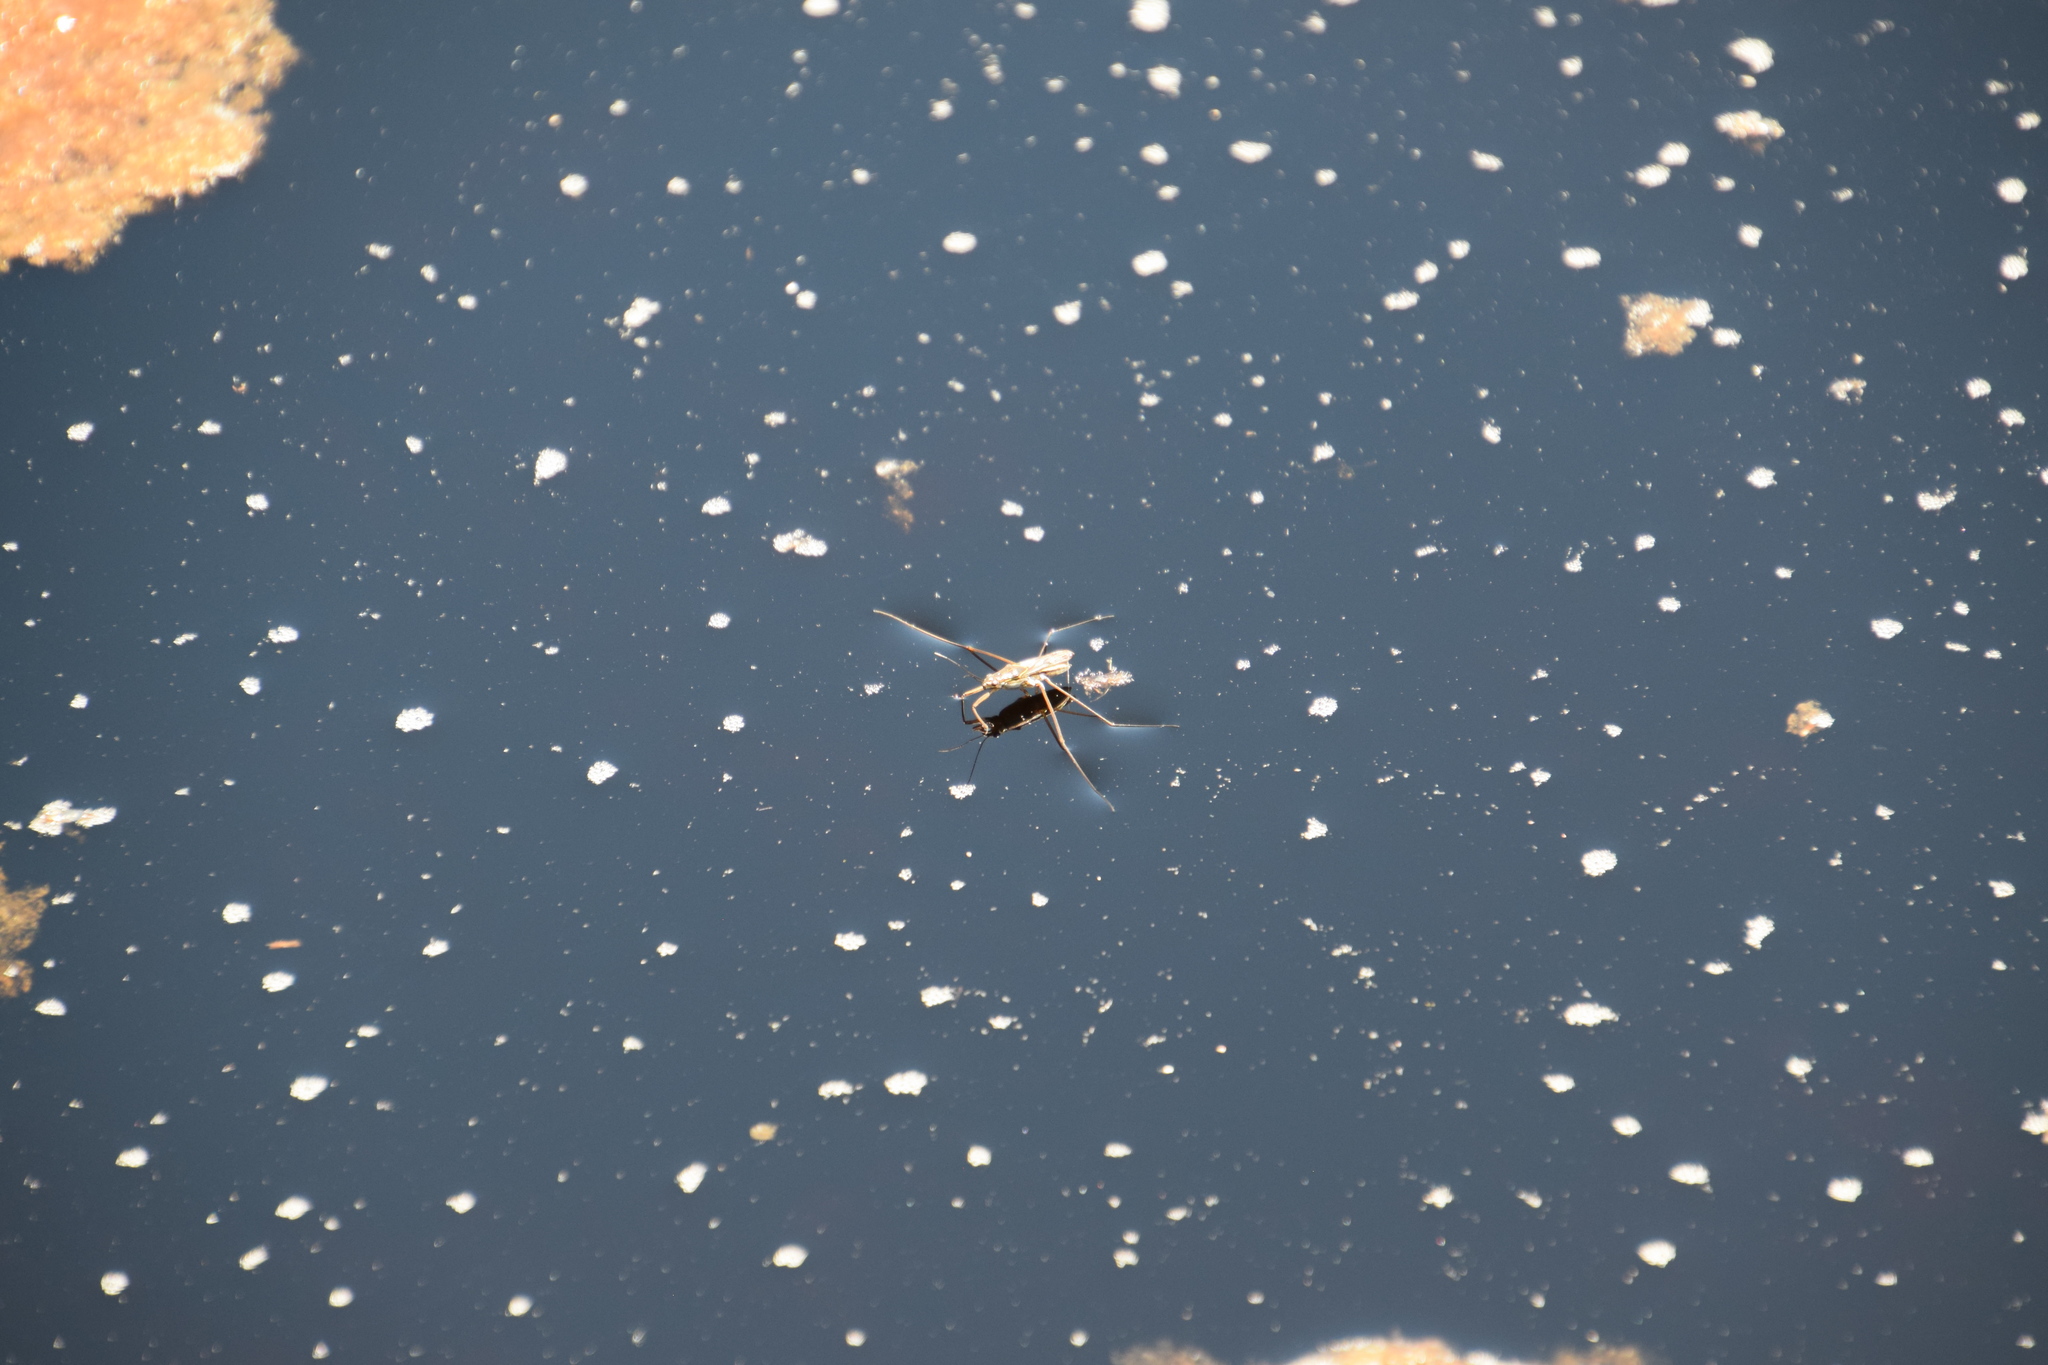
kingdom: Animalia
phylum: Arthropoda
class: Insecta
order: Hemiptera
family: Gerridae
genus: Limnogonus
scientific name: Limnogonus fossarum
